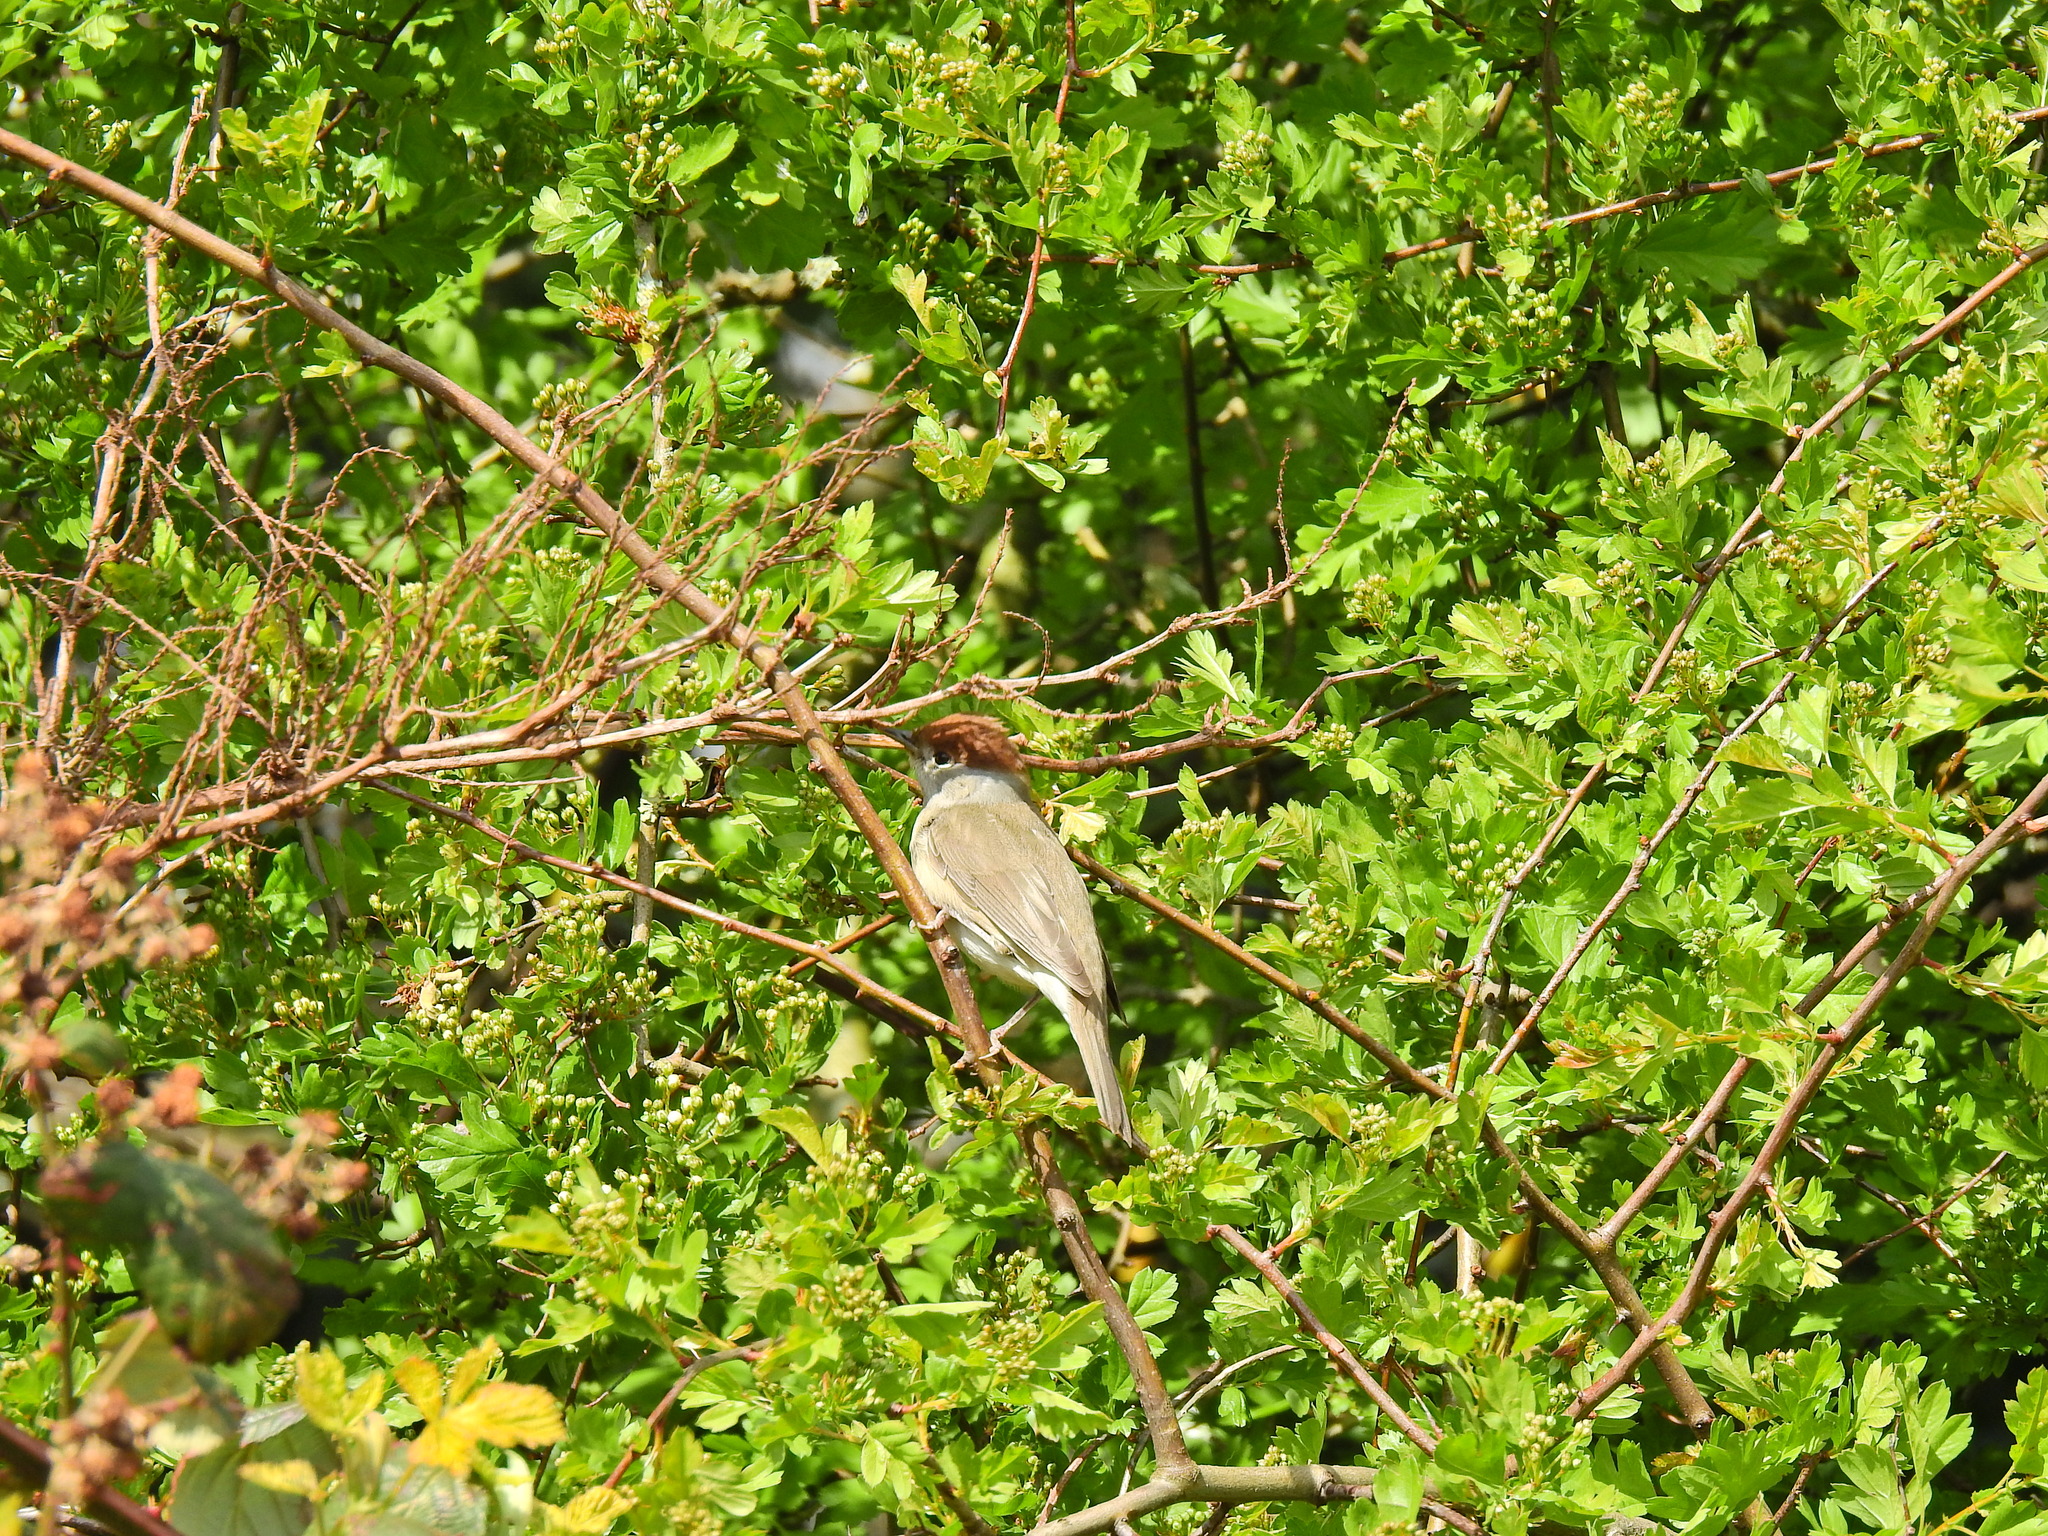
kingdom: Animalia
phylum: Chordata
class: Aves
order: Passeriformes
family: Sylviidae
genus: Sylvia
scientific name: Sylvia atricapilla
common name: Eurasian blackcap
